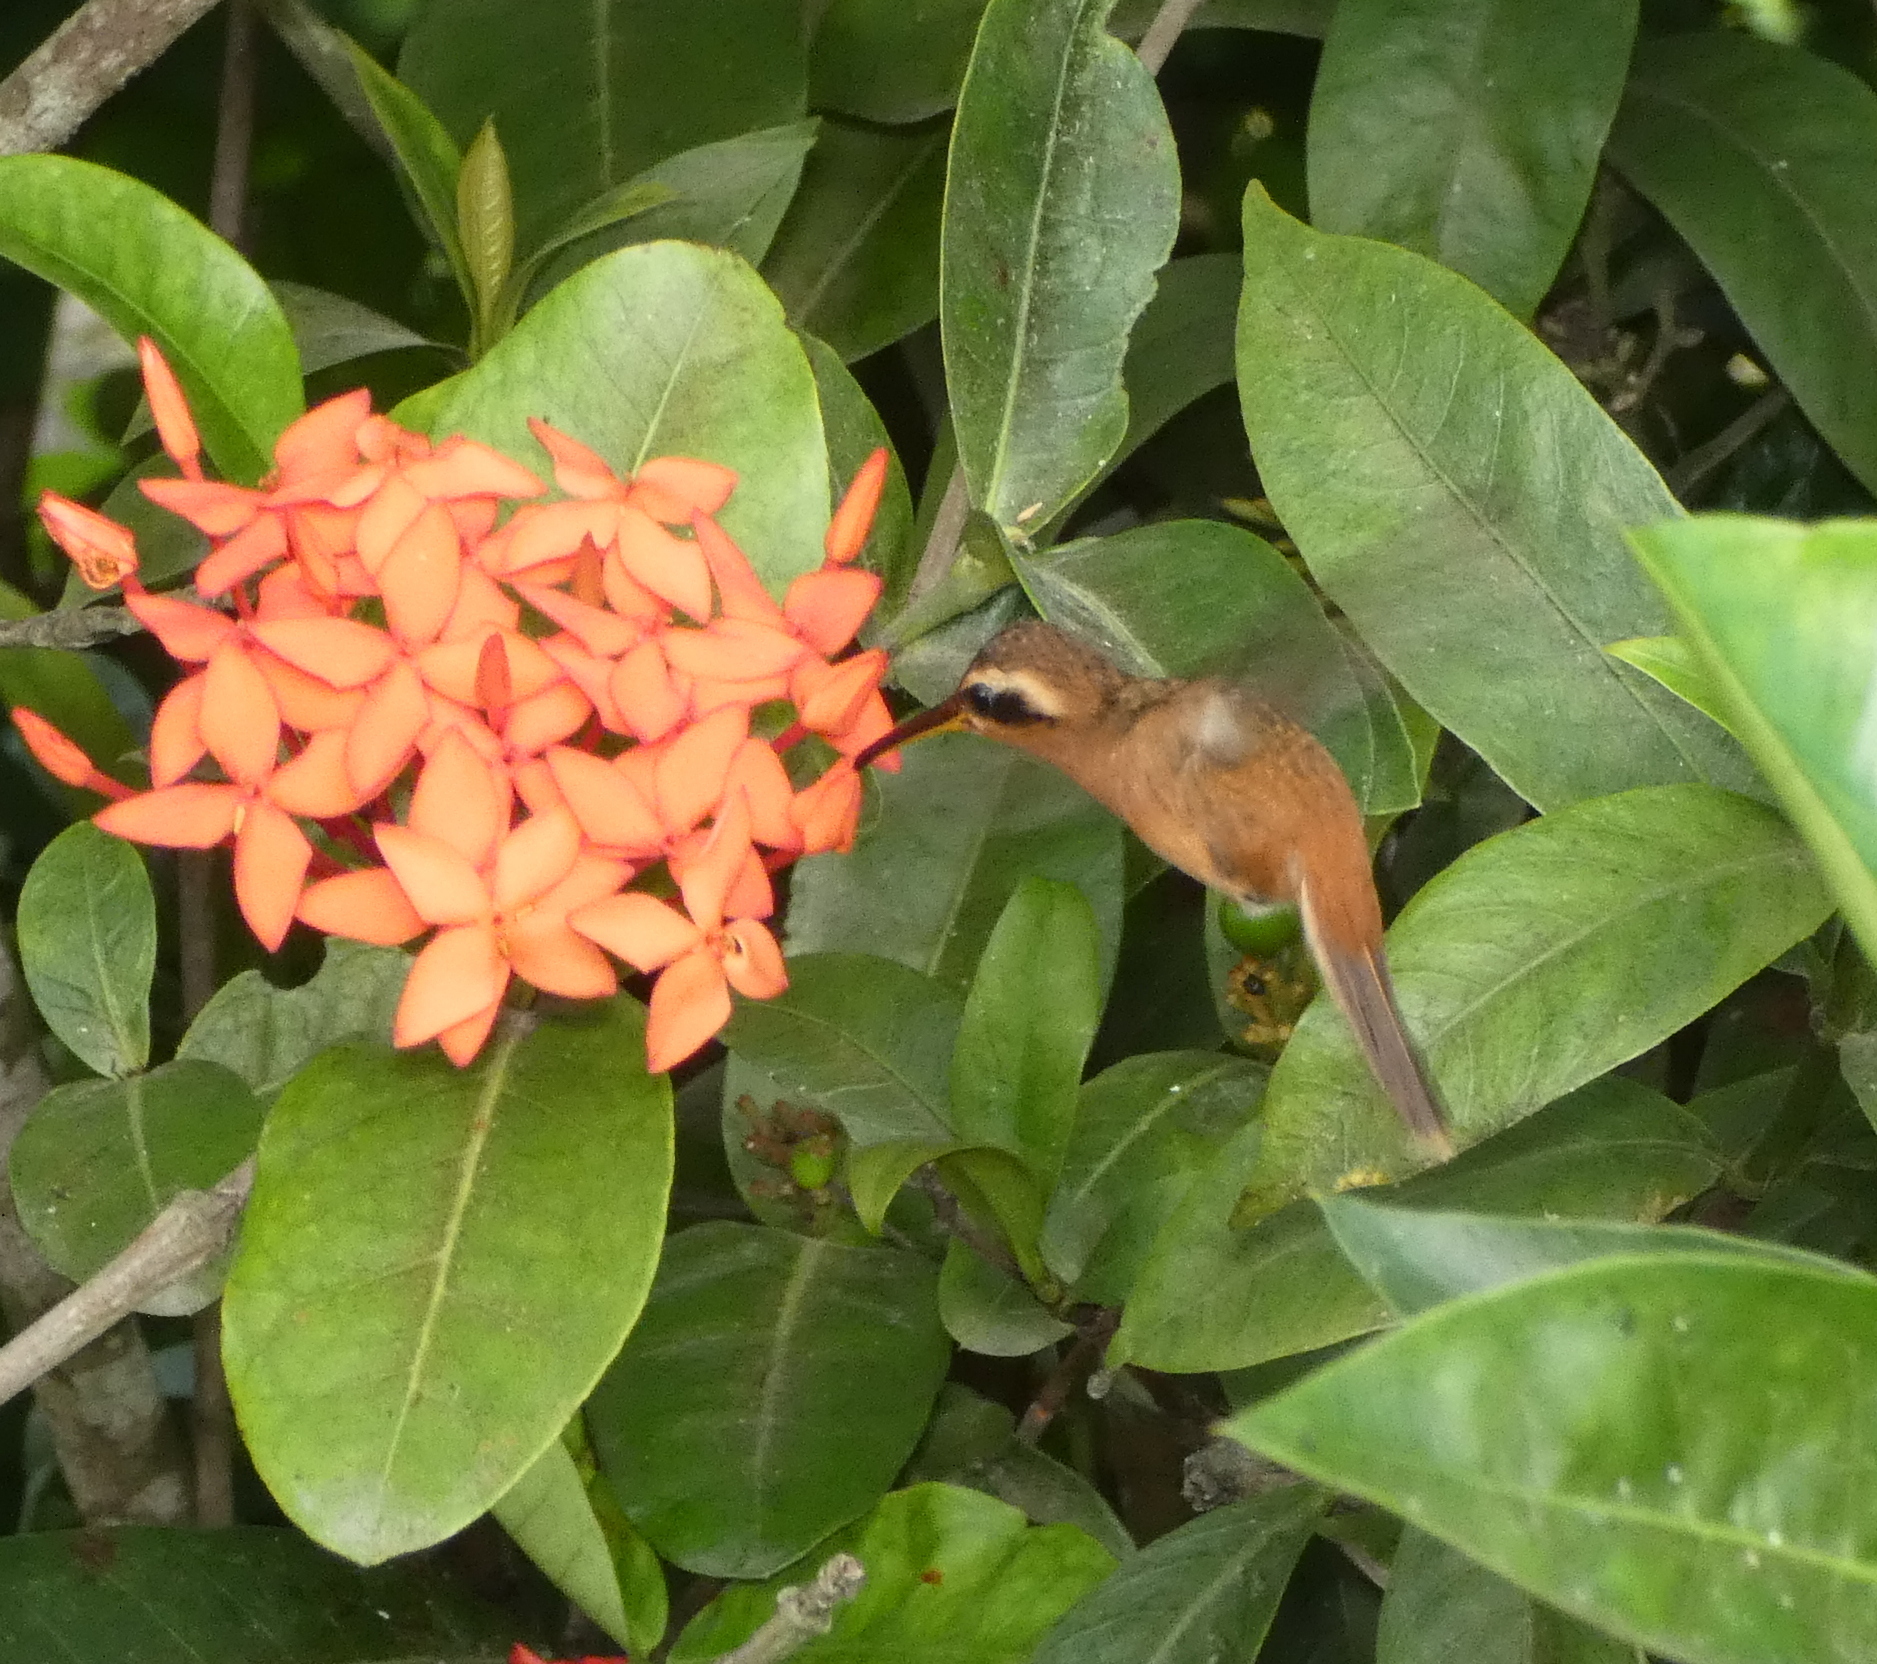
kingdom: Animalia
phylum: Chordata
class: Aves
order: Apodiformes
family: Trochilidae
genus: Phaethornis
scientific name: Phaethornis ruber
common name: Reddish hermit
